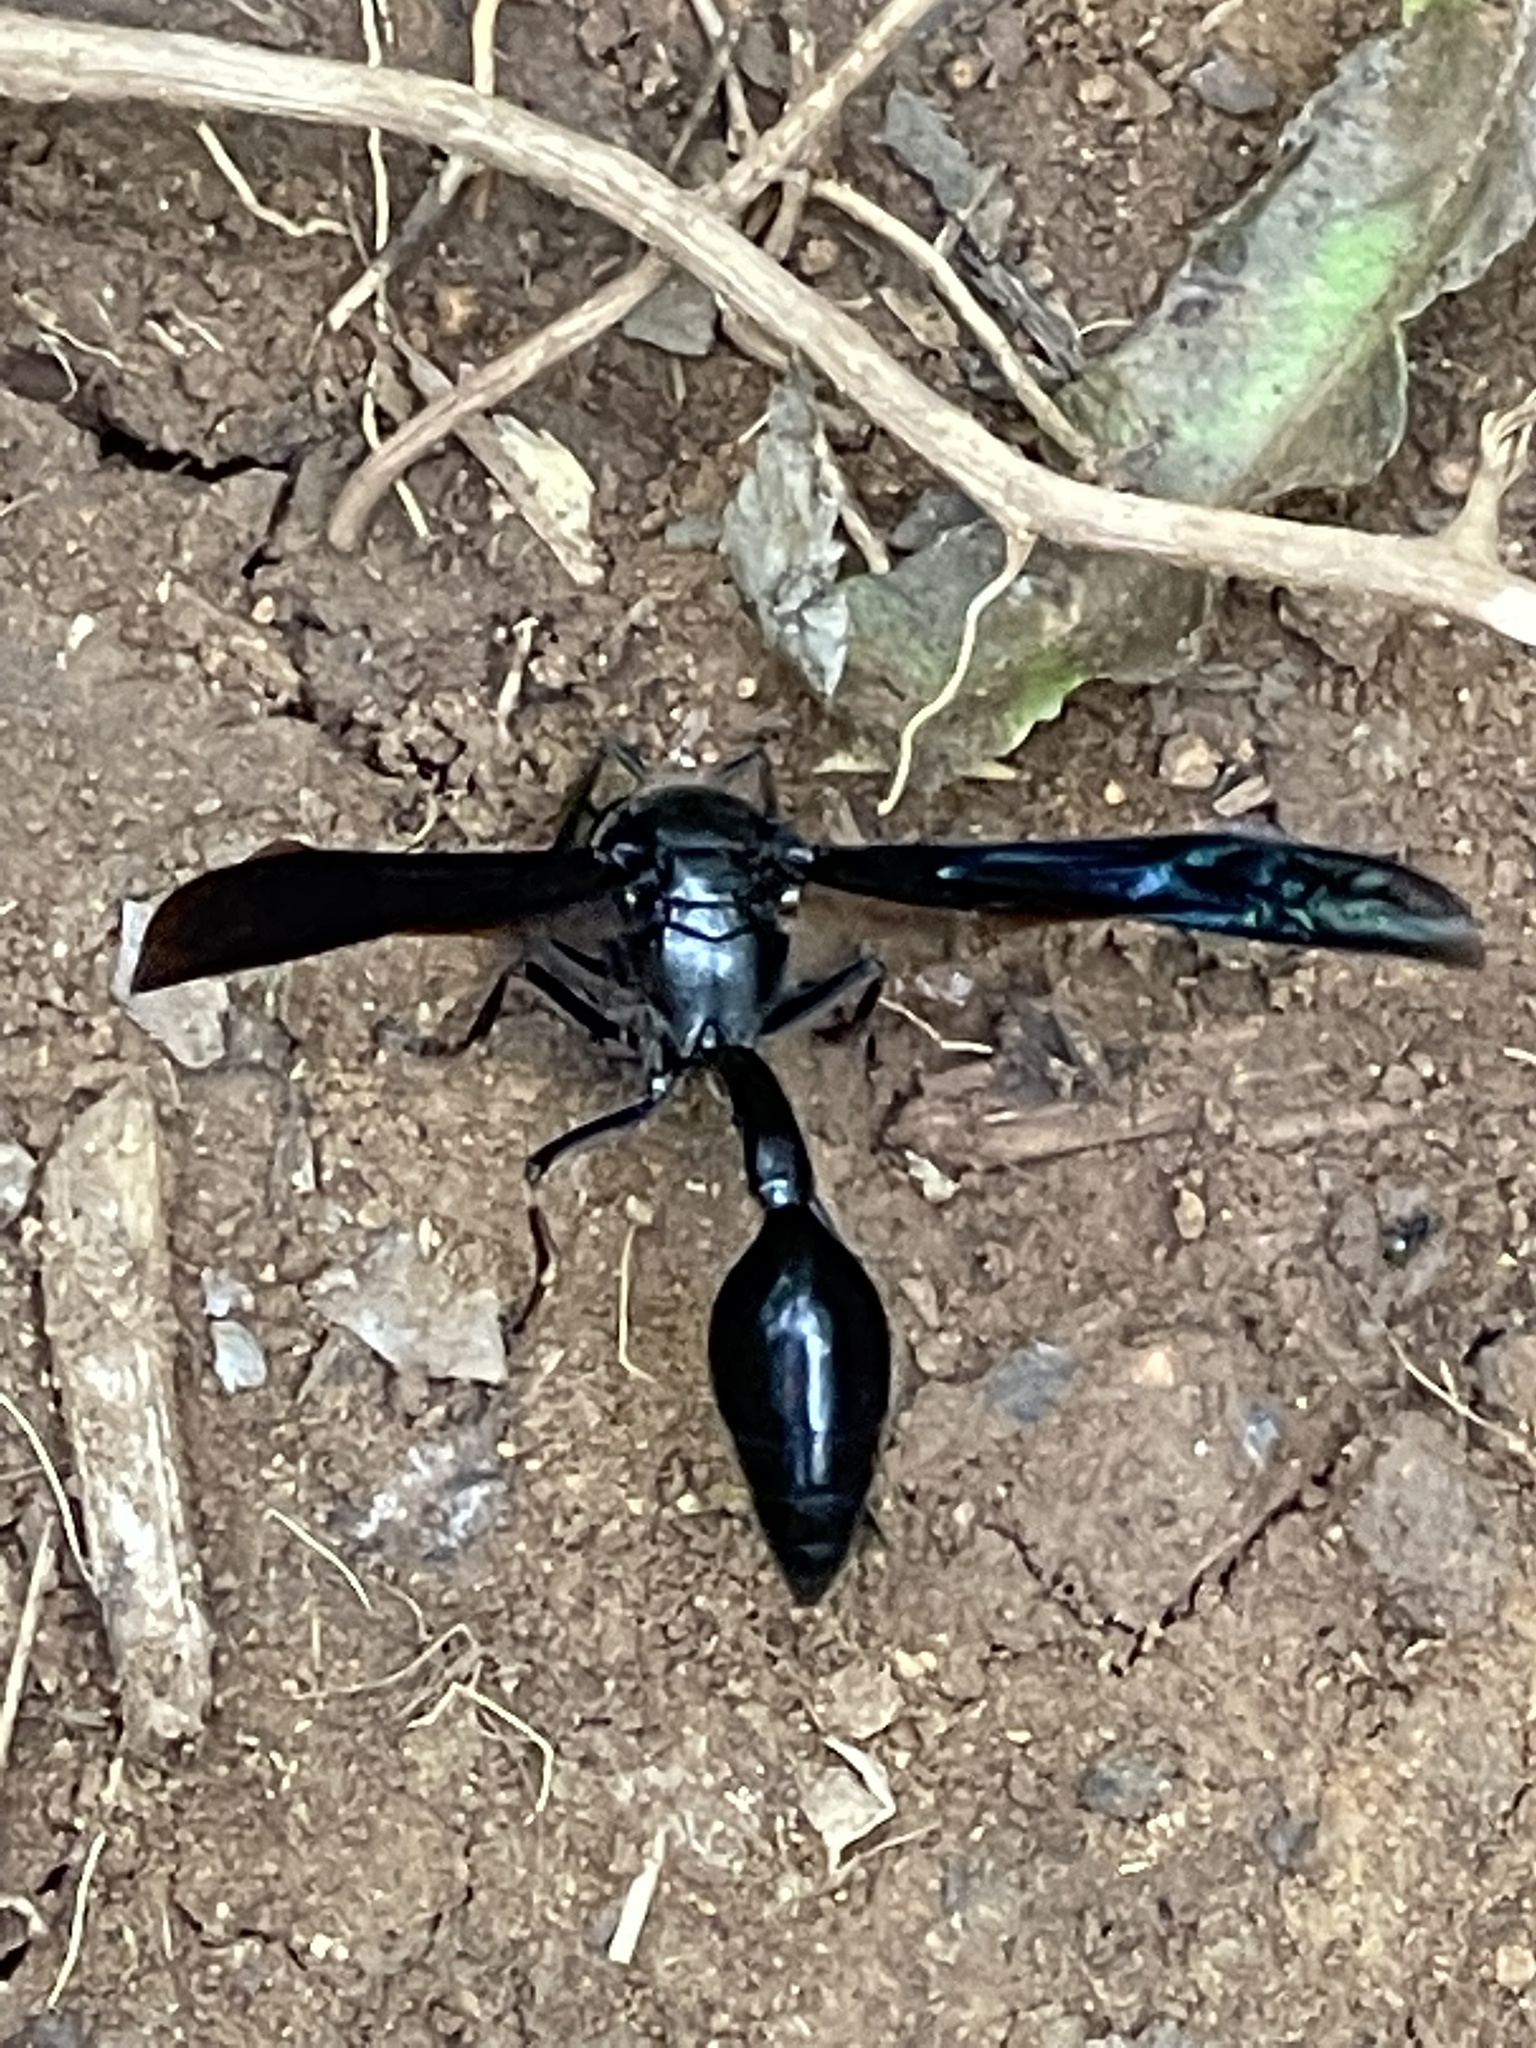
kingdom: Animalia
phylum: Arthropoda
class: Insecta
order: Hymenoptera
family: Eumenidae
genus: Phimenes
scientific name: Phimenes curvatus
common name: Black delta vespid wasp
